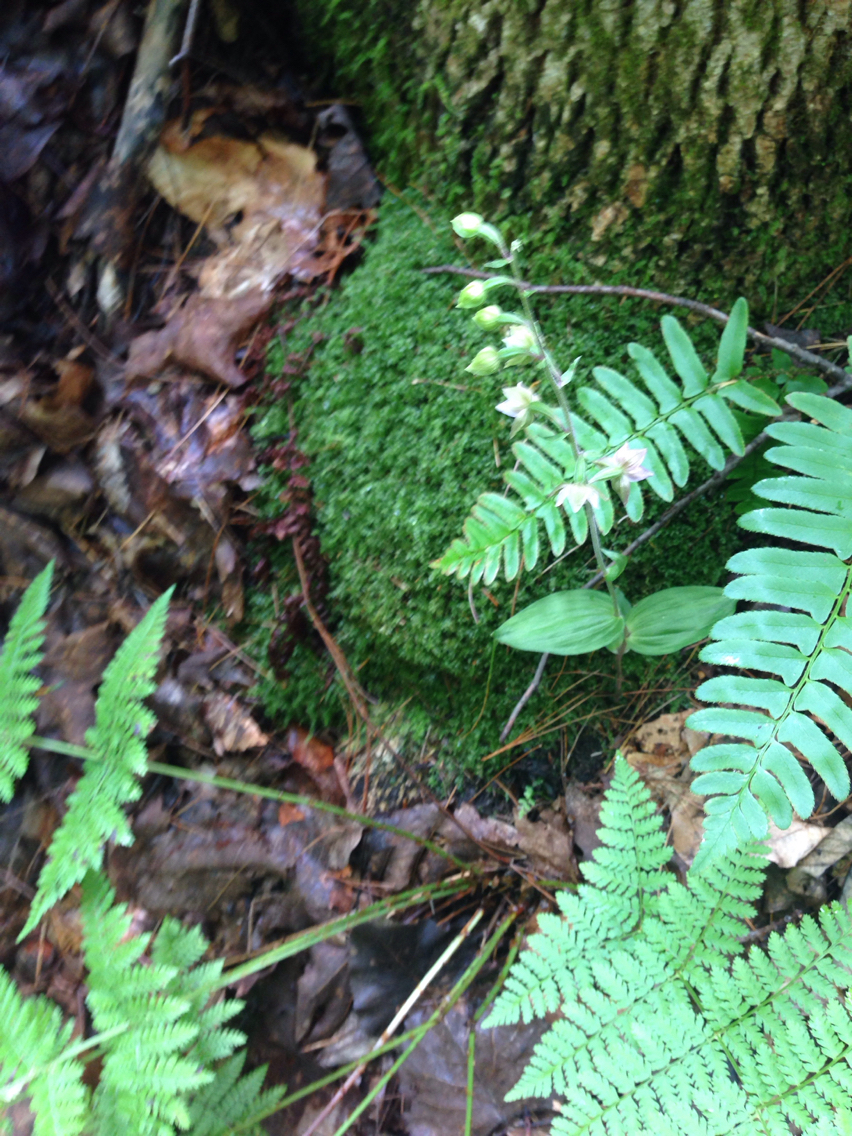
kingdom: Plantae
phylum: Tracheophyta
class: Liliopsida
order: Asparagales
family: Orchidaceae
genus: Epipactis
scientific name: Epipactis helleborine
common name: Broad-leaved helleborine
